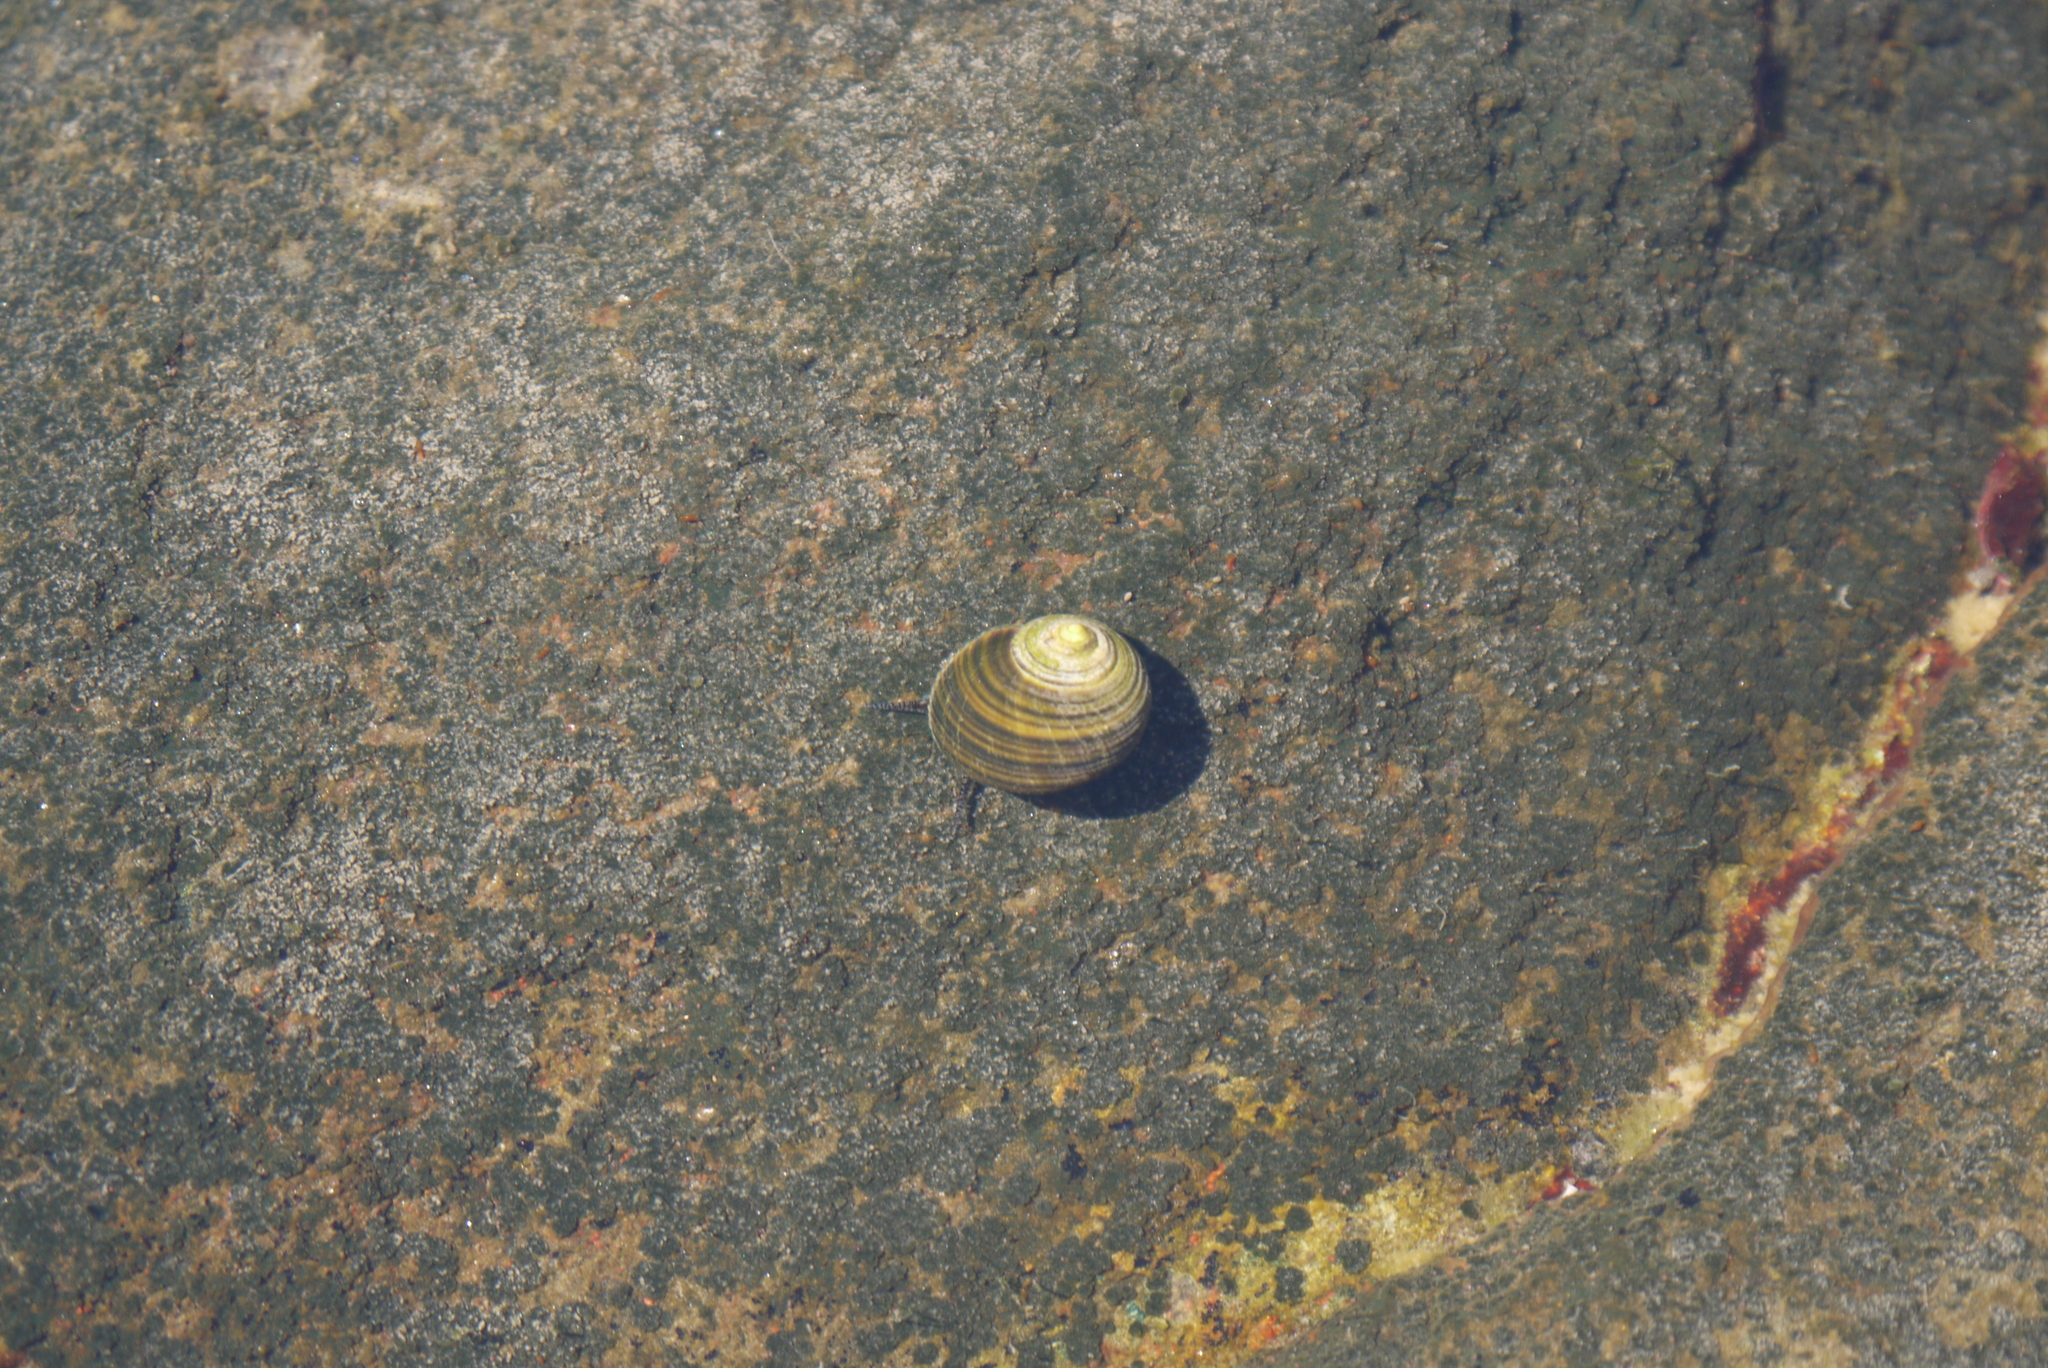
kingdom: Animalia
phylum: Mollusca
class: Gastropoda
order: Littorinimorpha
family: Littorinidae
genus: Littorina
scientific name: Littorina littorea
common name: Common periwinkle
